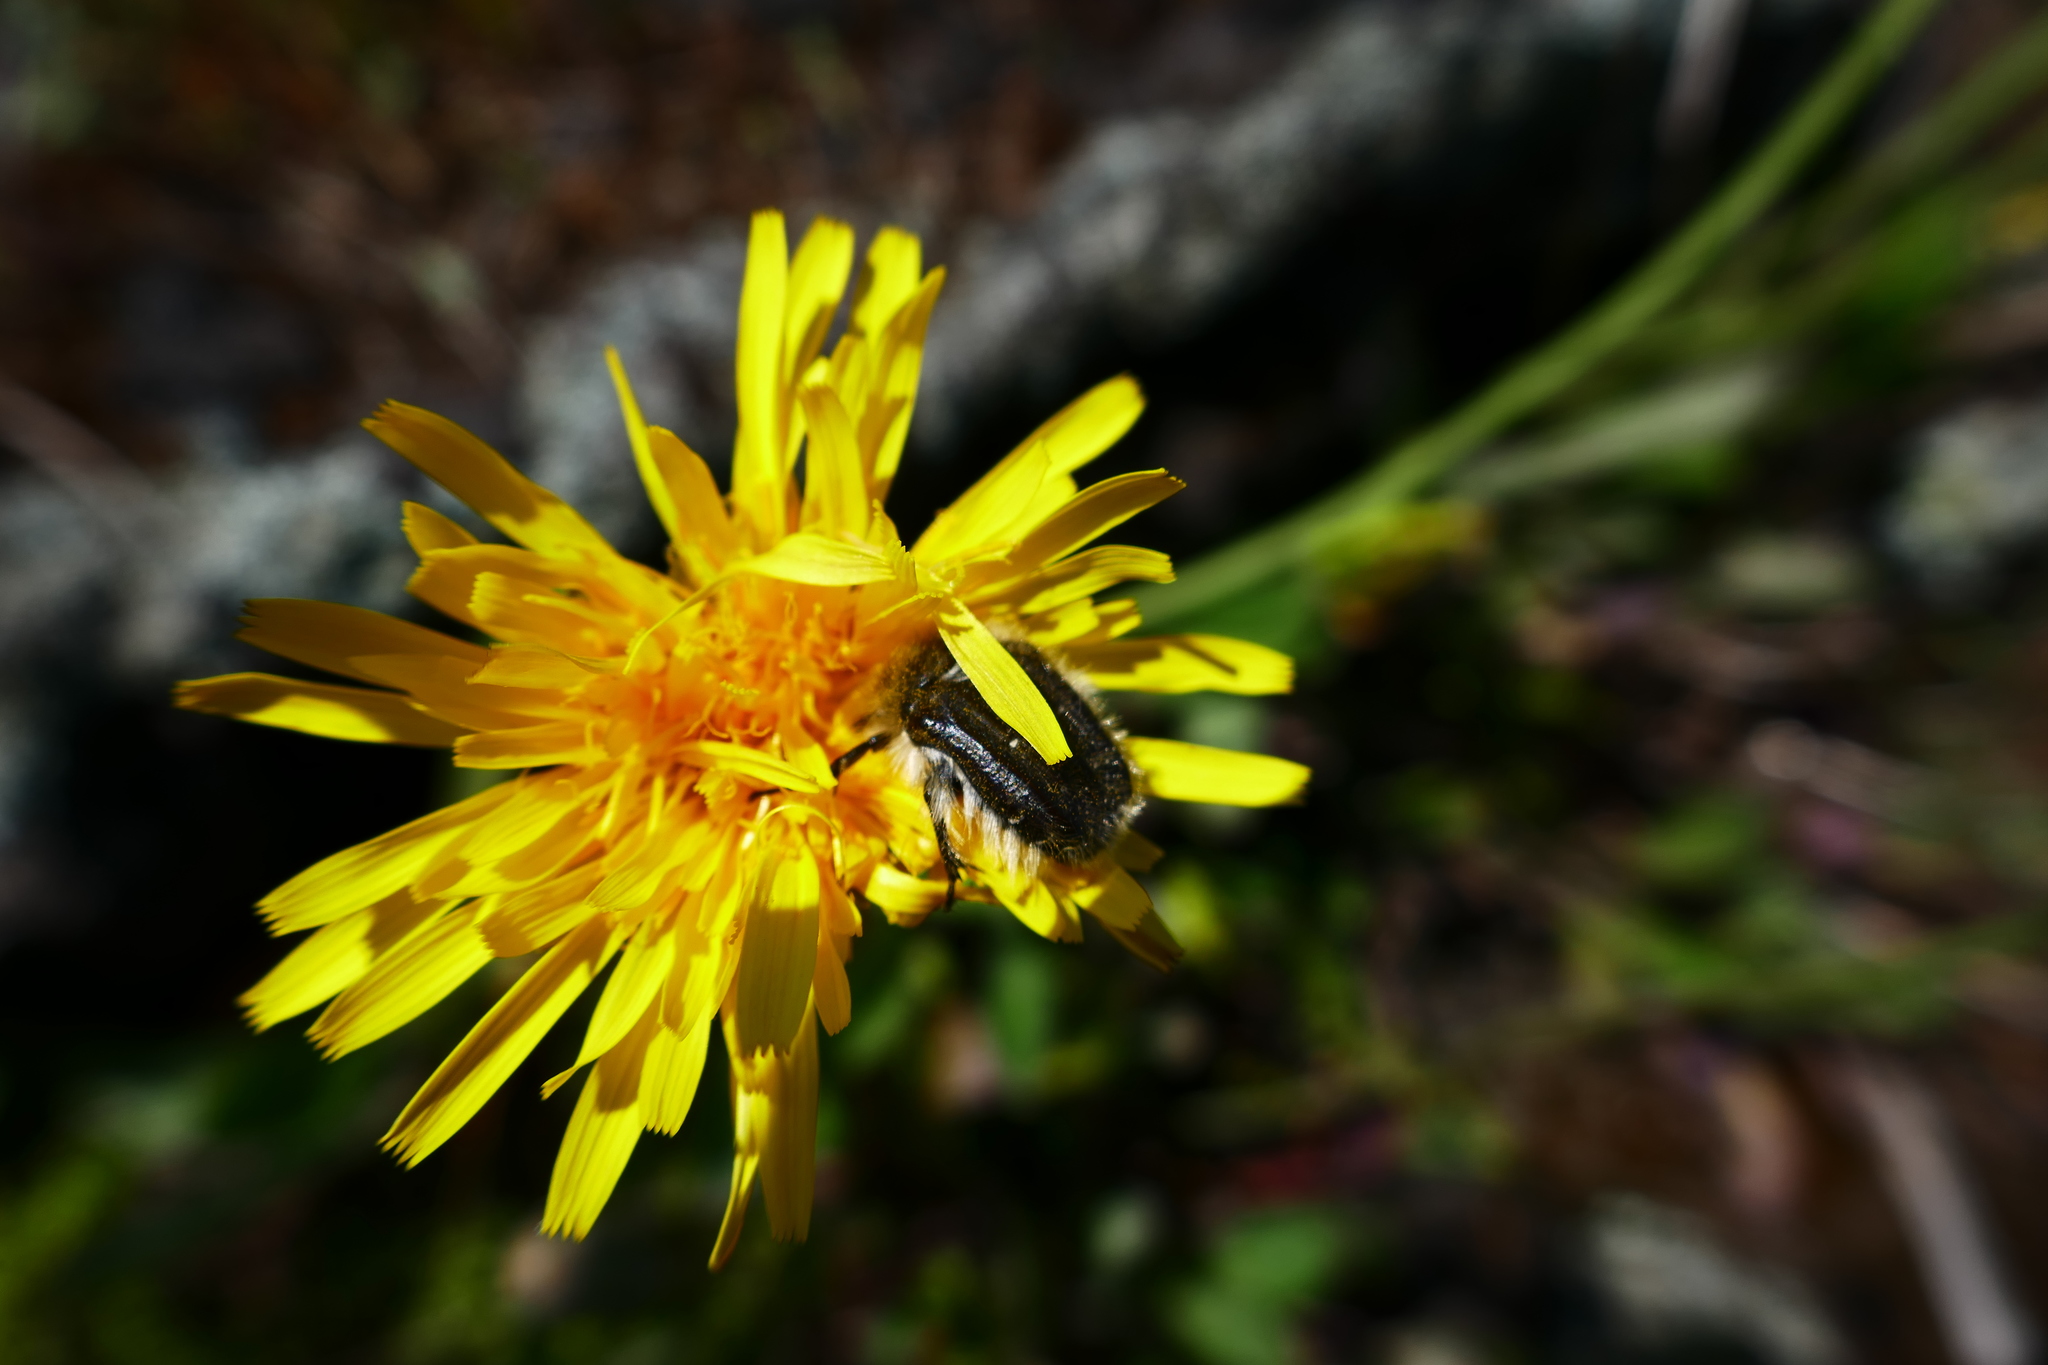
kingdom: Animalia
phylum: Arthropoda
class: Insecta
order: Coleoptera
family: Scarabaeidae
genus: Tropinota
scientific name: Tropinota squalida
